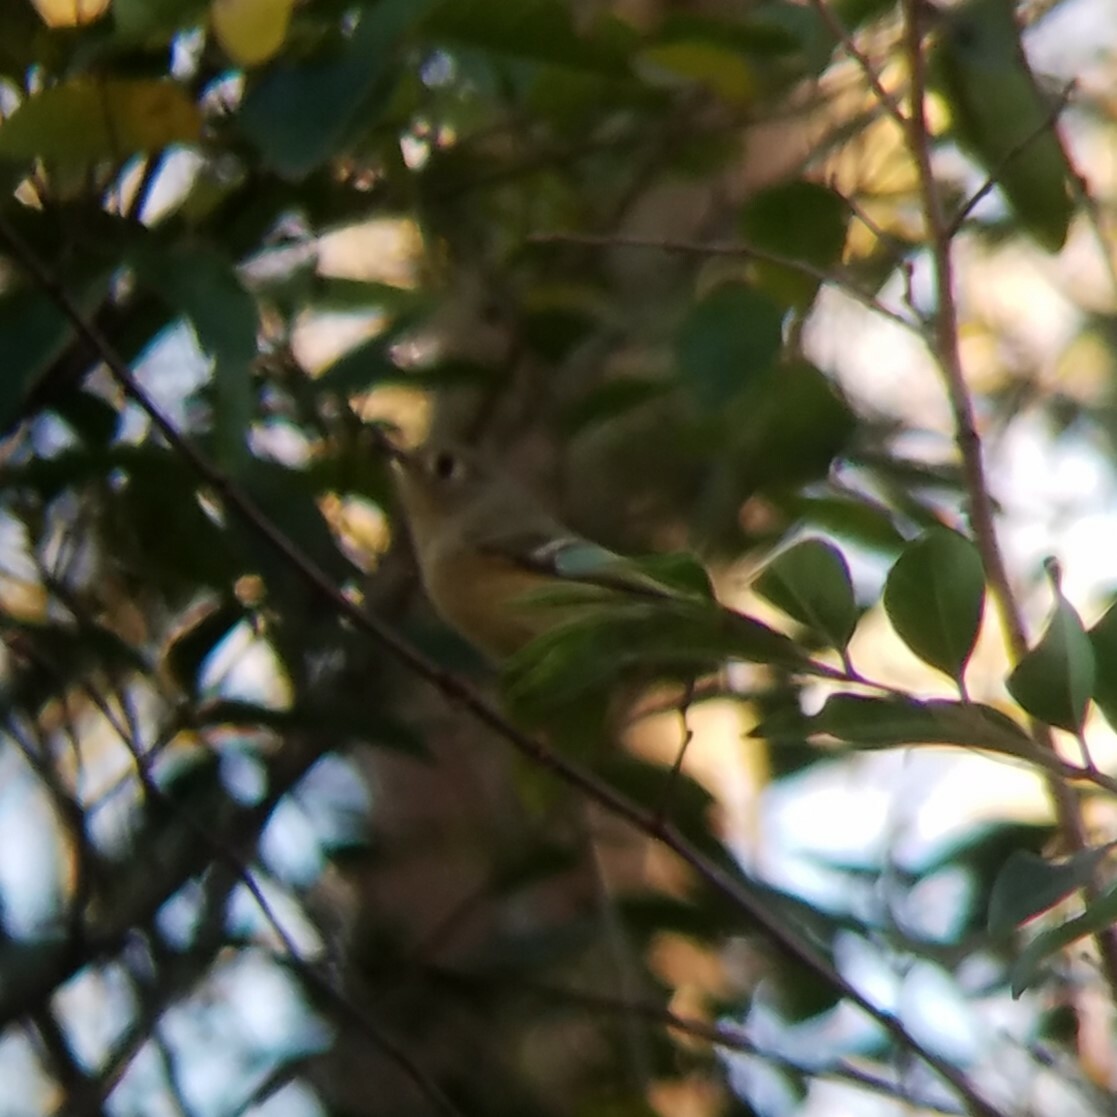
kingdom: Animalia
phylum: Chordata
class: Aves
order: Passeriformes
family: Regulidae
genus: Regulus
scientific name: Regulus calendula
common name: Ruby-crowned kinglet
